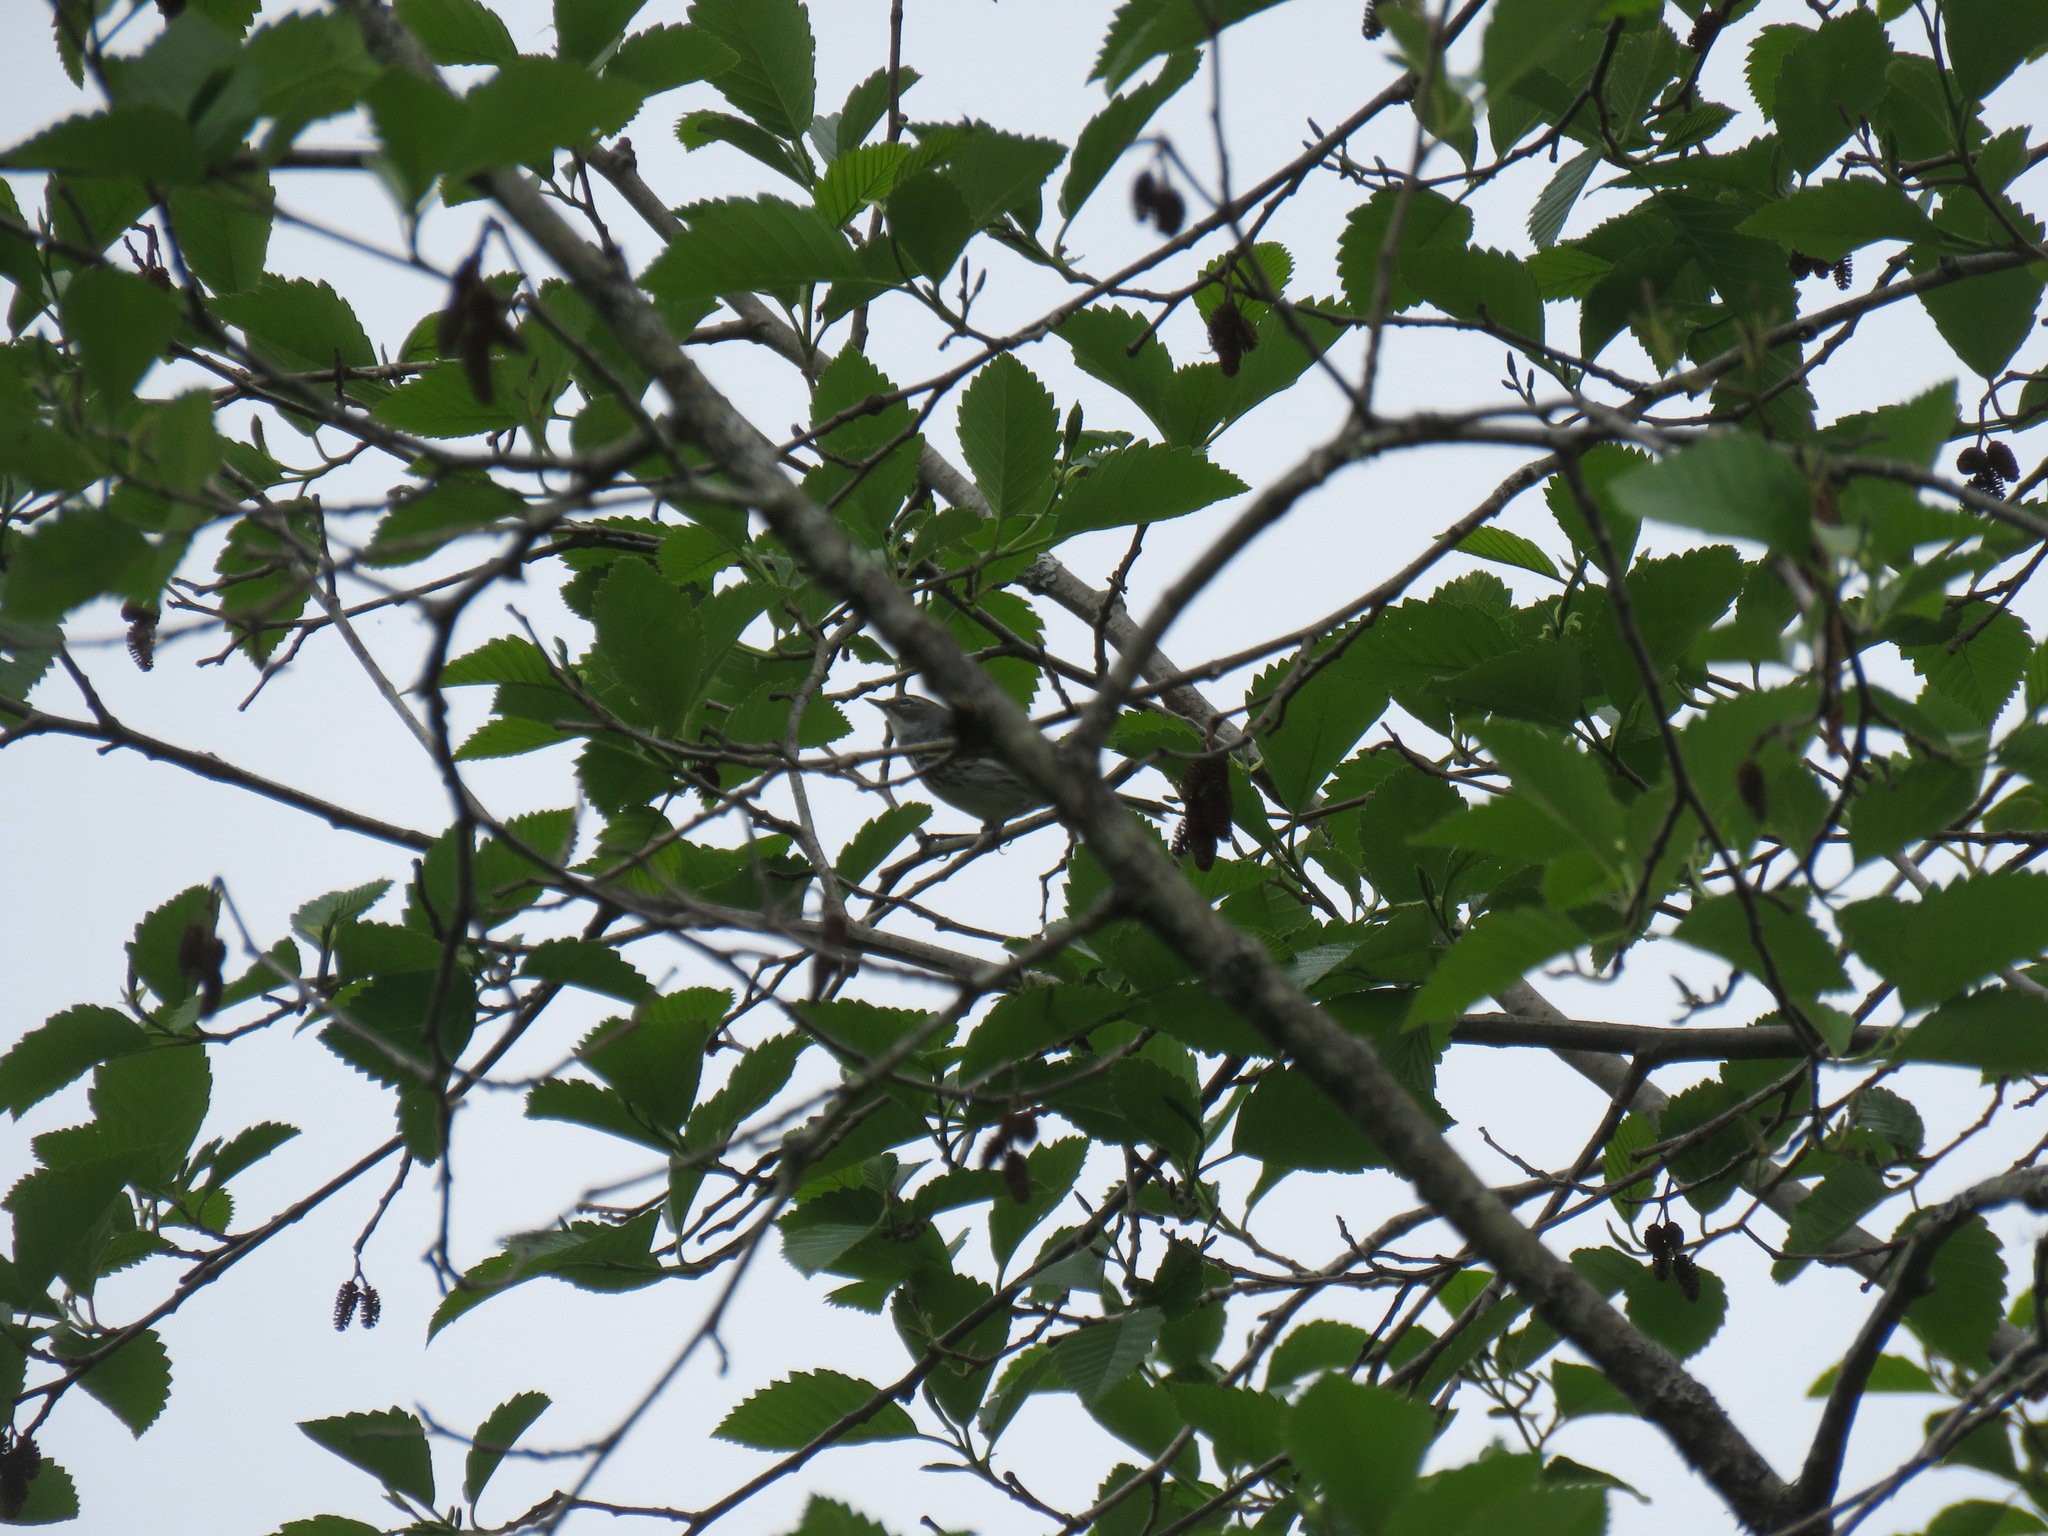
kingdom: Animalia
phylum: Chordata
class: Aves
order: Passeriformes
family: Parulidae
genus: Setophaga
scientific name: Setophaga coronata
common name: Myrtle warbler
